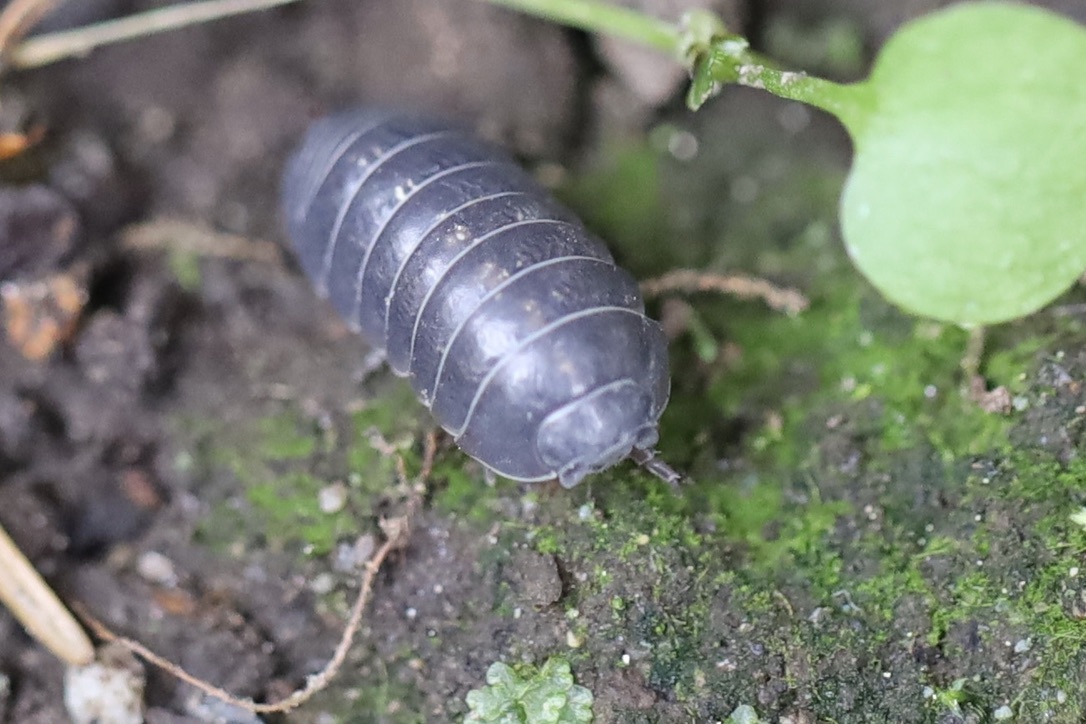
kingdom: Animalia
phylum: Arthropoda
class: Malacostraca
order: Isopoda
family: Armadillidiidae
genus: Armadillidium
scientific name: Armadillidium vulgare
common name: Common pill woodlouse
